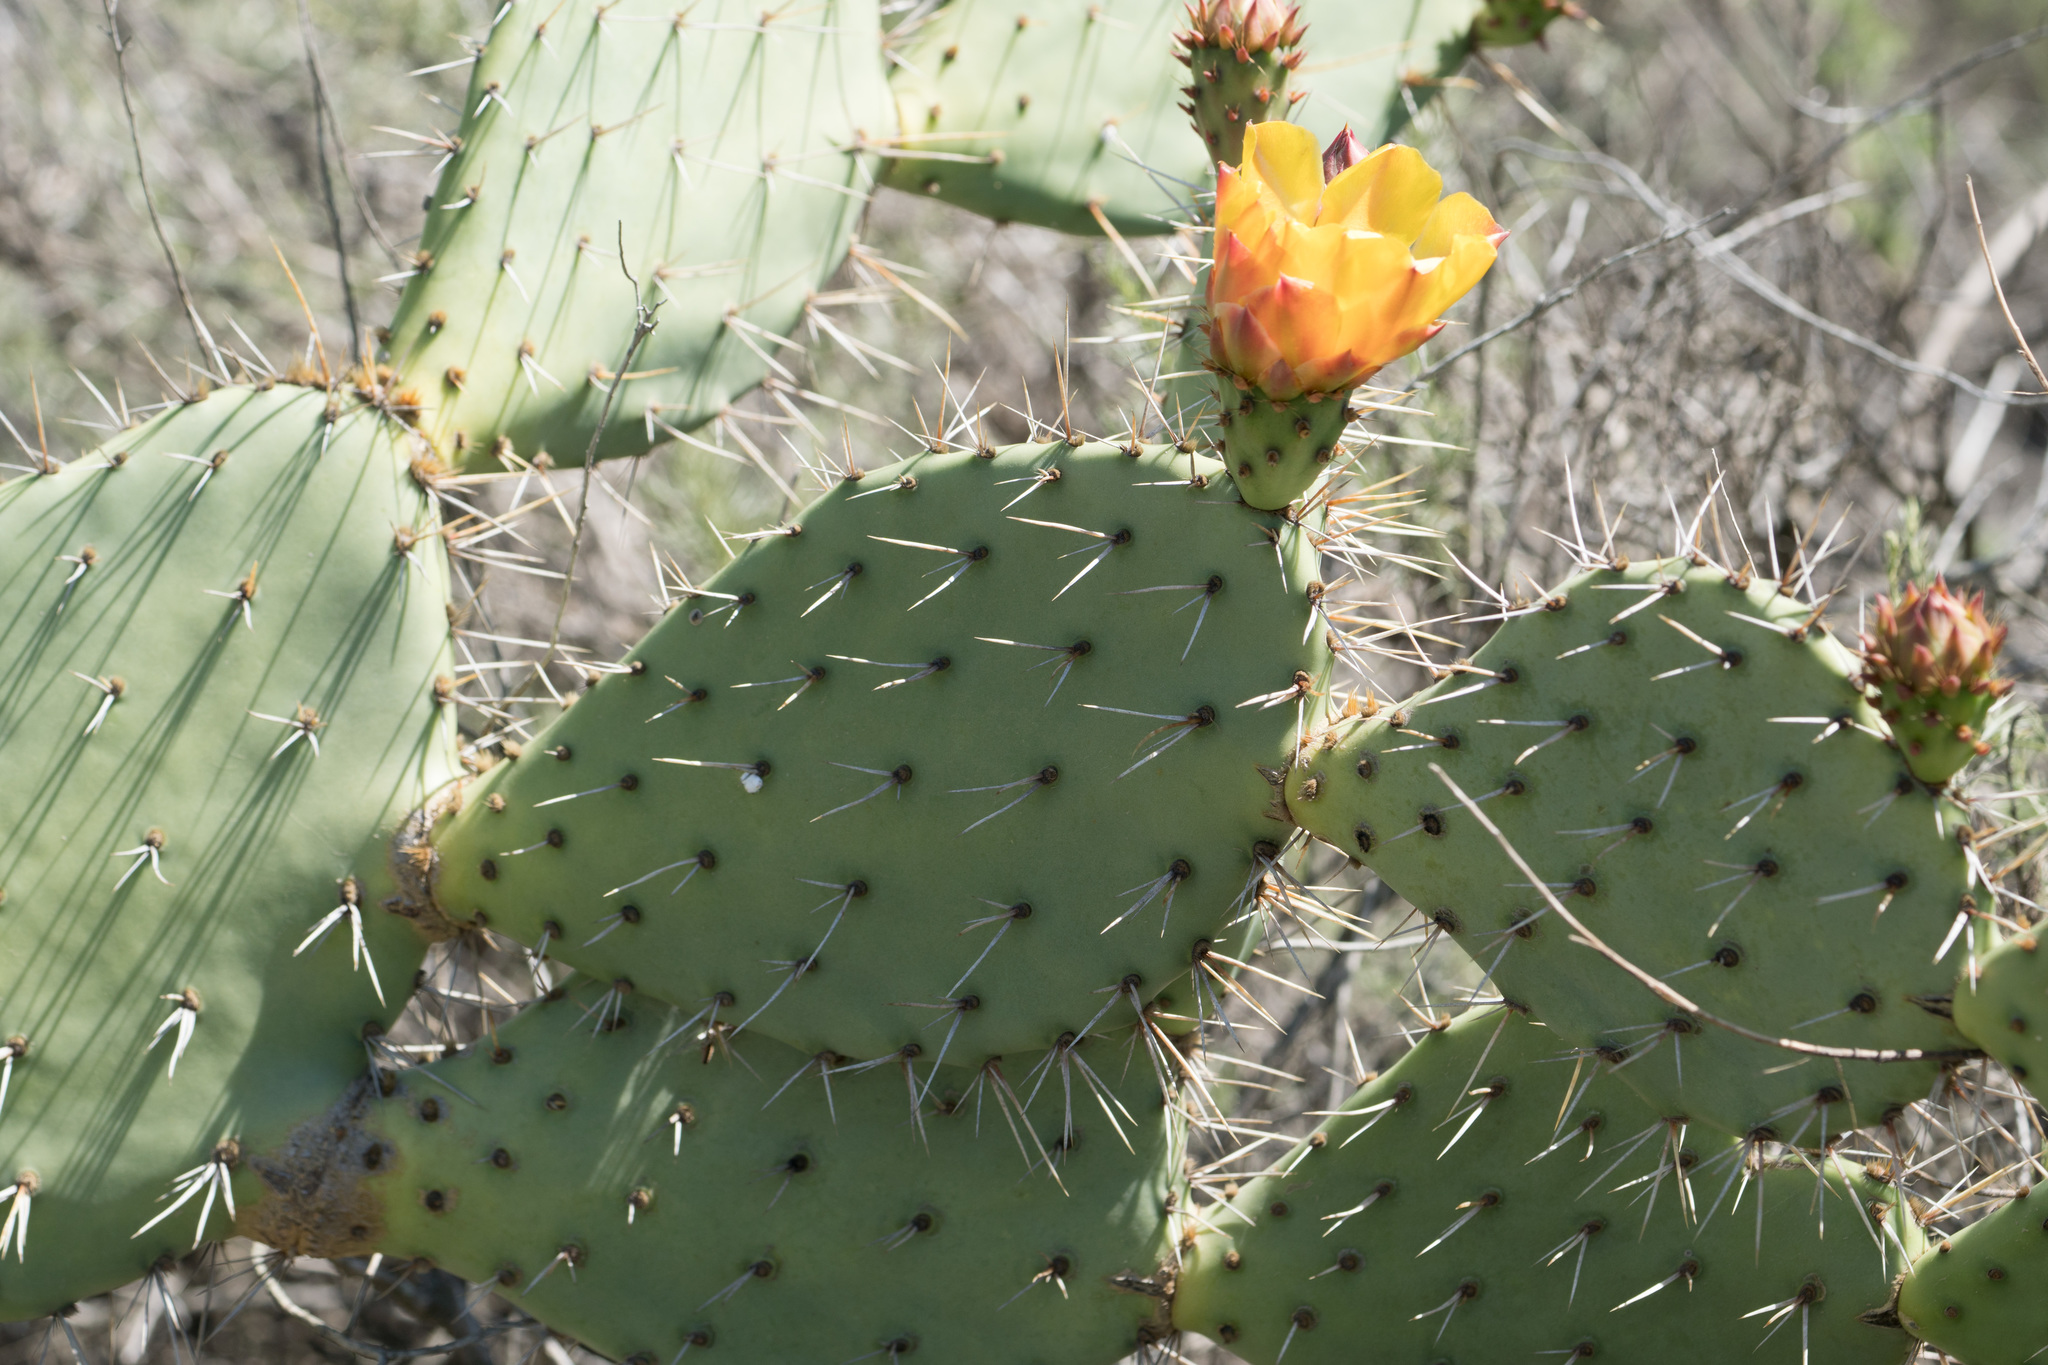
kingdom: Plantae
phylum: Tracheophyta
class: Magnoliopsida
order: Caryophyllales
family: Cactaceae
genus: Opuntia
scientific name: Opuntia littoralis
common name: Coastal prickly-pear
